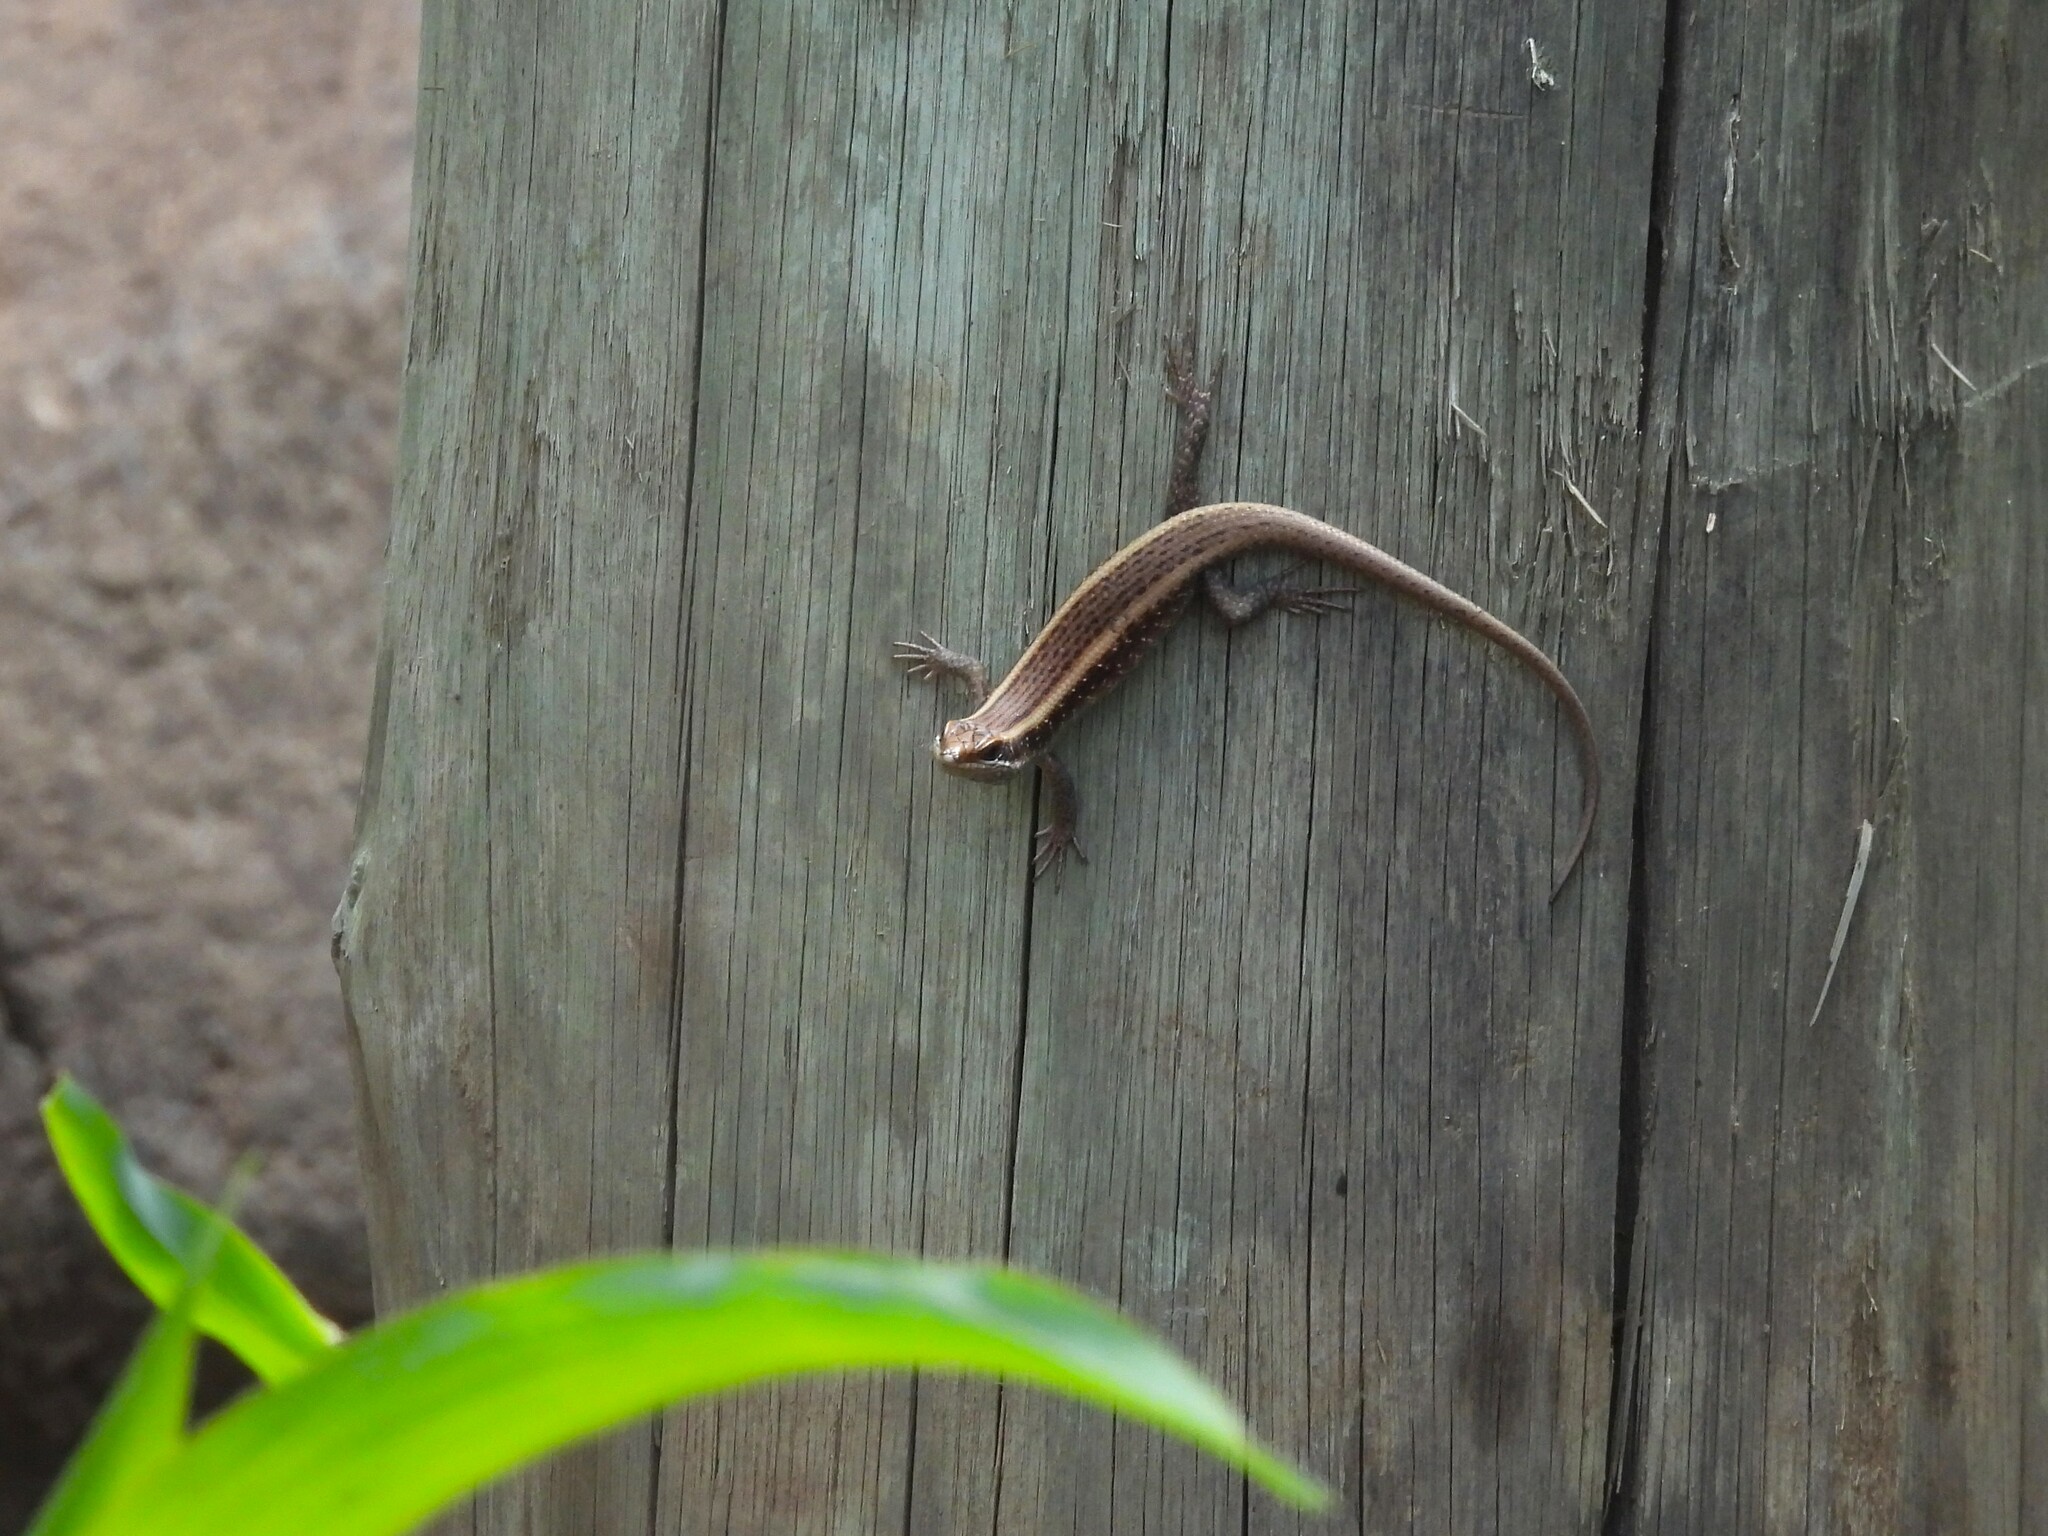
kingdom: Animalia
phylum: Chordata
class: Squamata
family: Scincidae
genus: Trachylepis
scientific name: Trachylepis striata
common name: African striped mabuya
